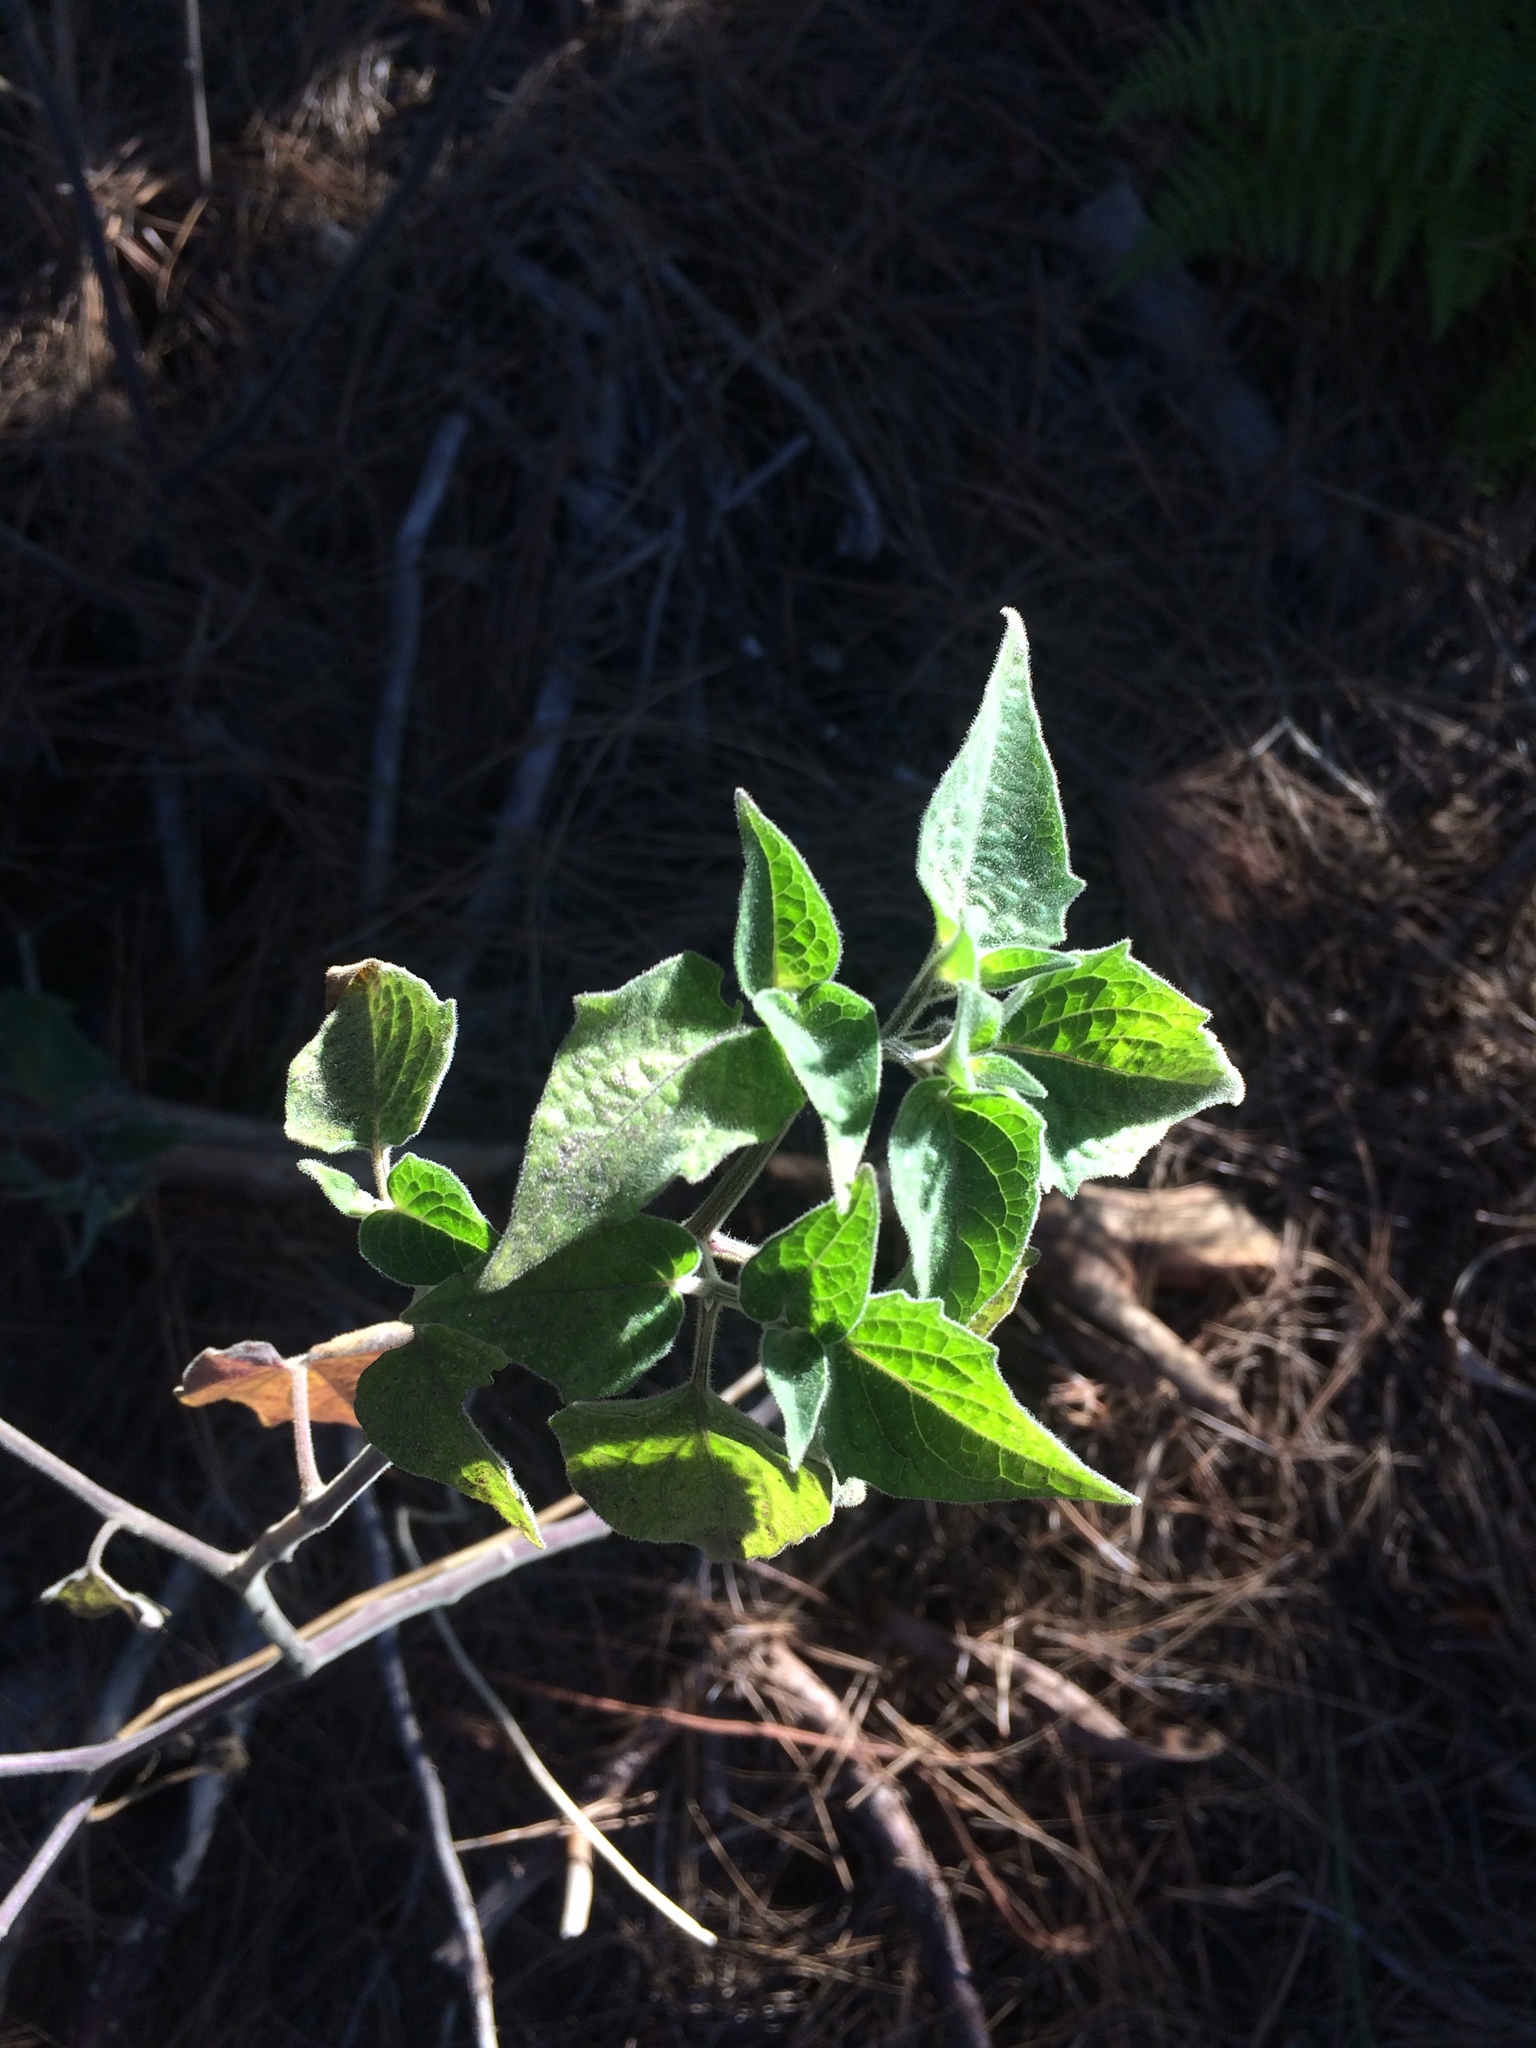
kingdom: Plantae
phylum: Tracheophyta
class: Magnoliopsida
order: Solanales
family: Solanaceae
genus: Physalis
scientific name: Physalis peruviana
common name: Cape-gooseberry
